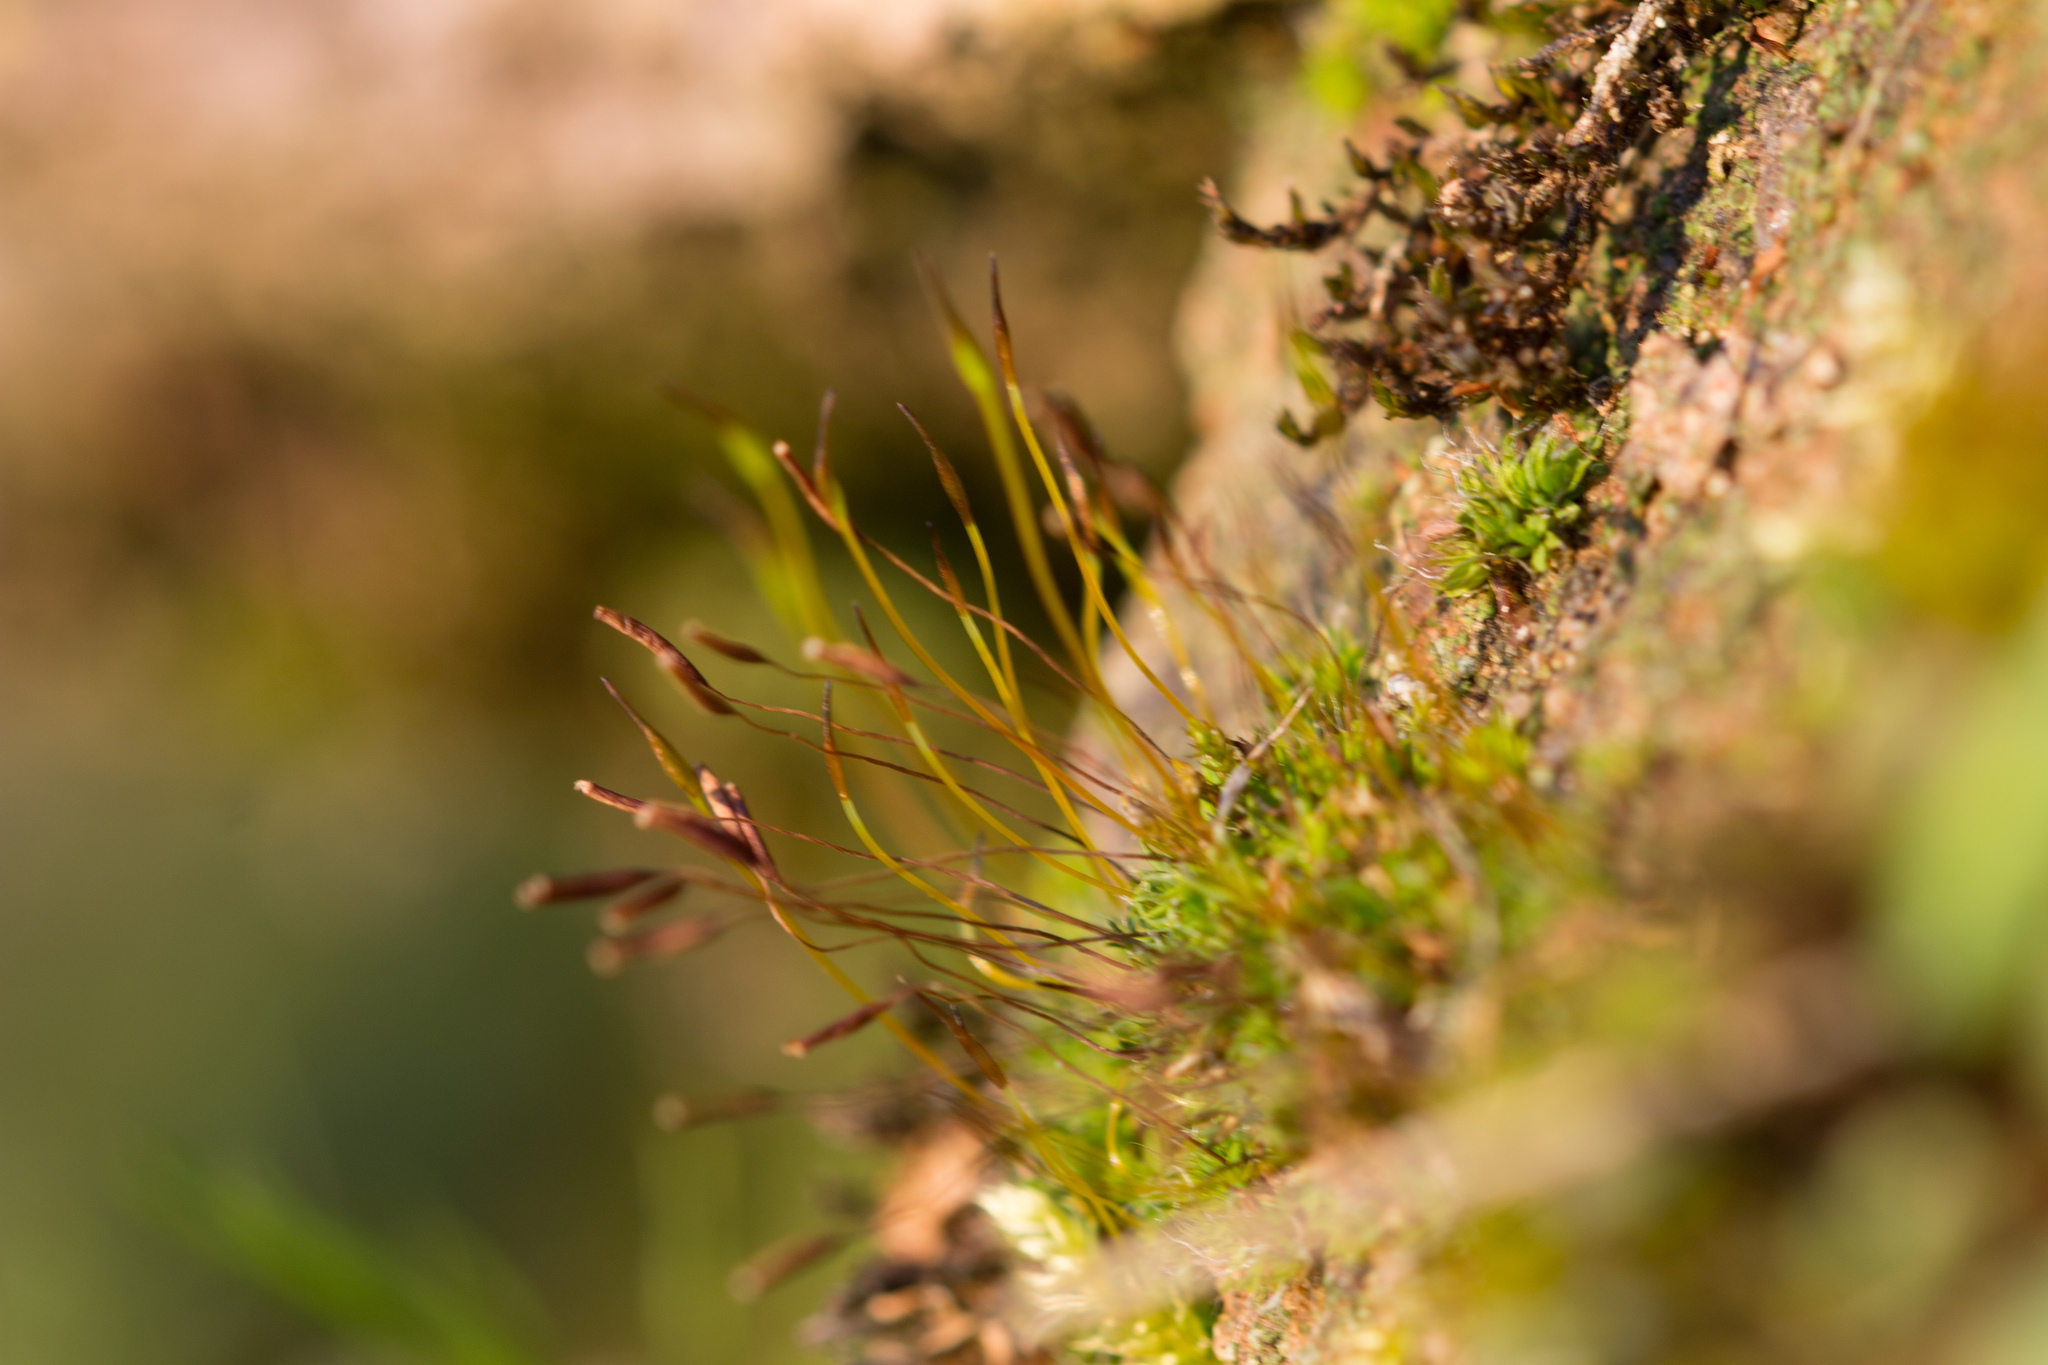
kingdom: Plantae
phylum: Bryophyta
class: Bryopsida
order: Pottiales
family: Pottiaceae
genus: Tortula
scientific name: Tortula muralis
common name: Wall screw-moss
